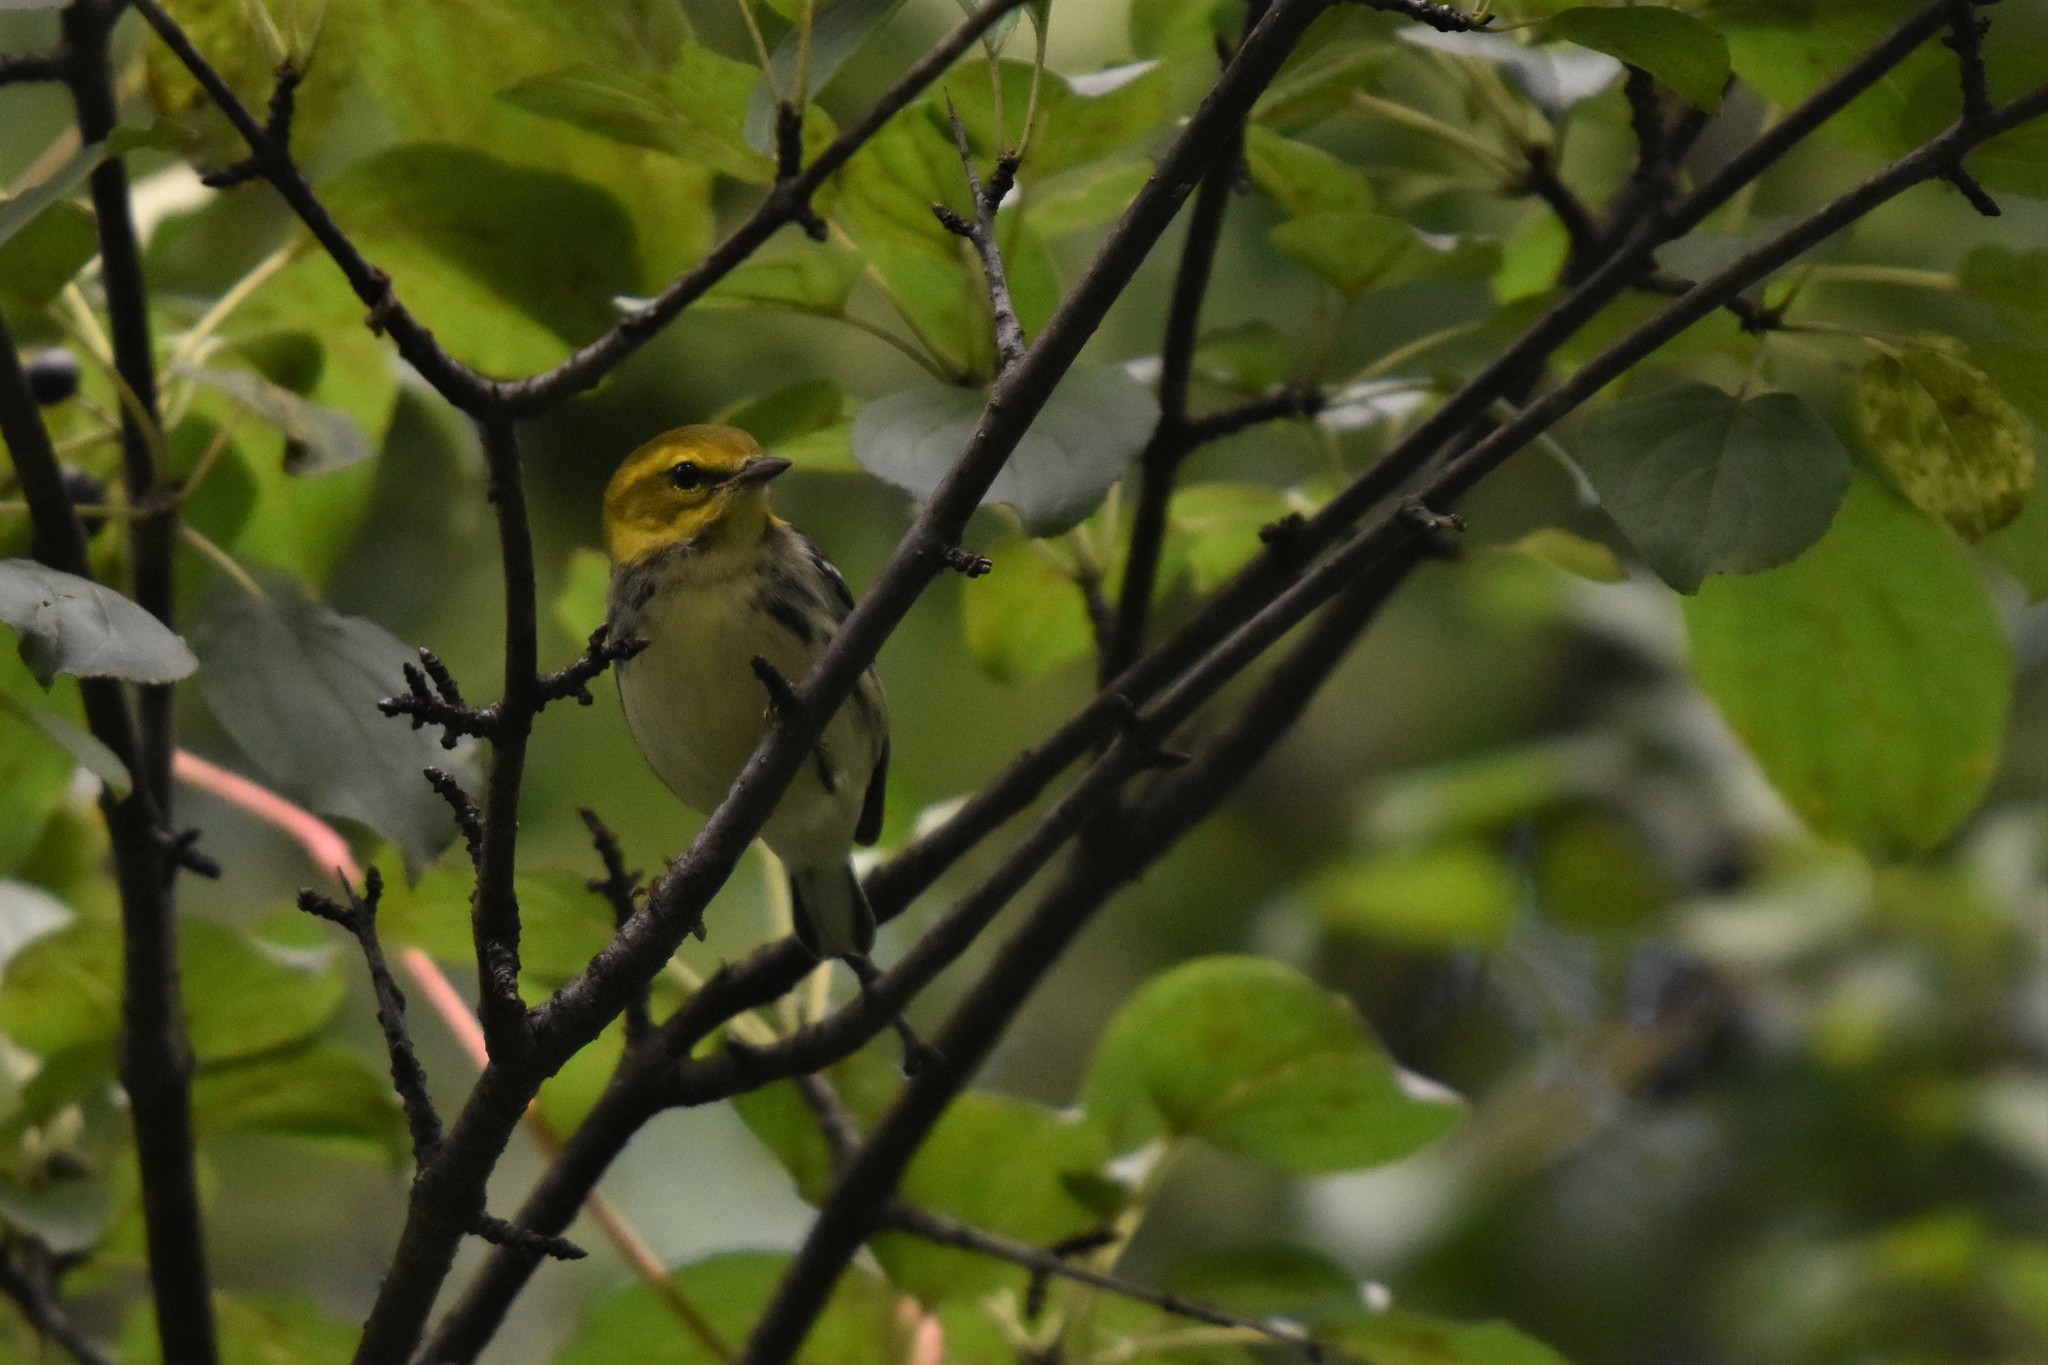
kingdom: Animalia
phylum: Chordata
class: Aves
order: Passeriformes
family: Parulidae
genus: Setophaga
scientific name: Setophaga virens
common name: Black-throated green warbler
